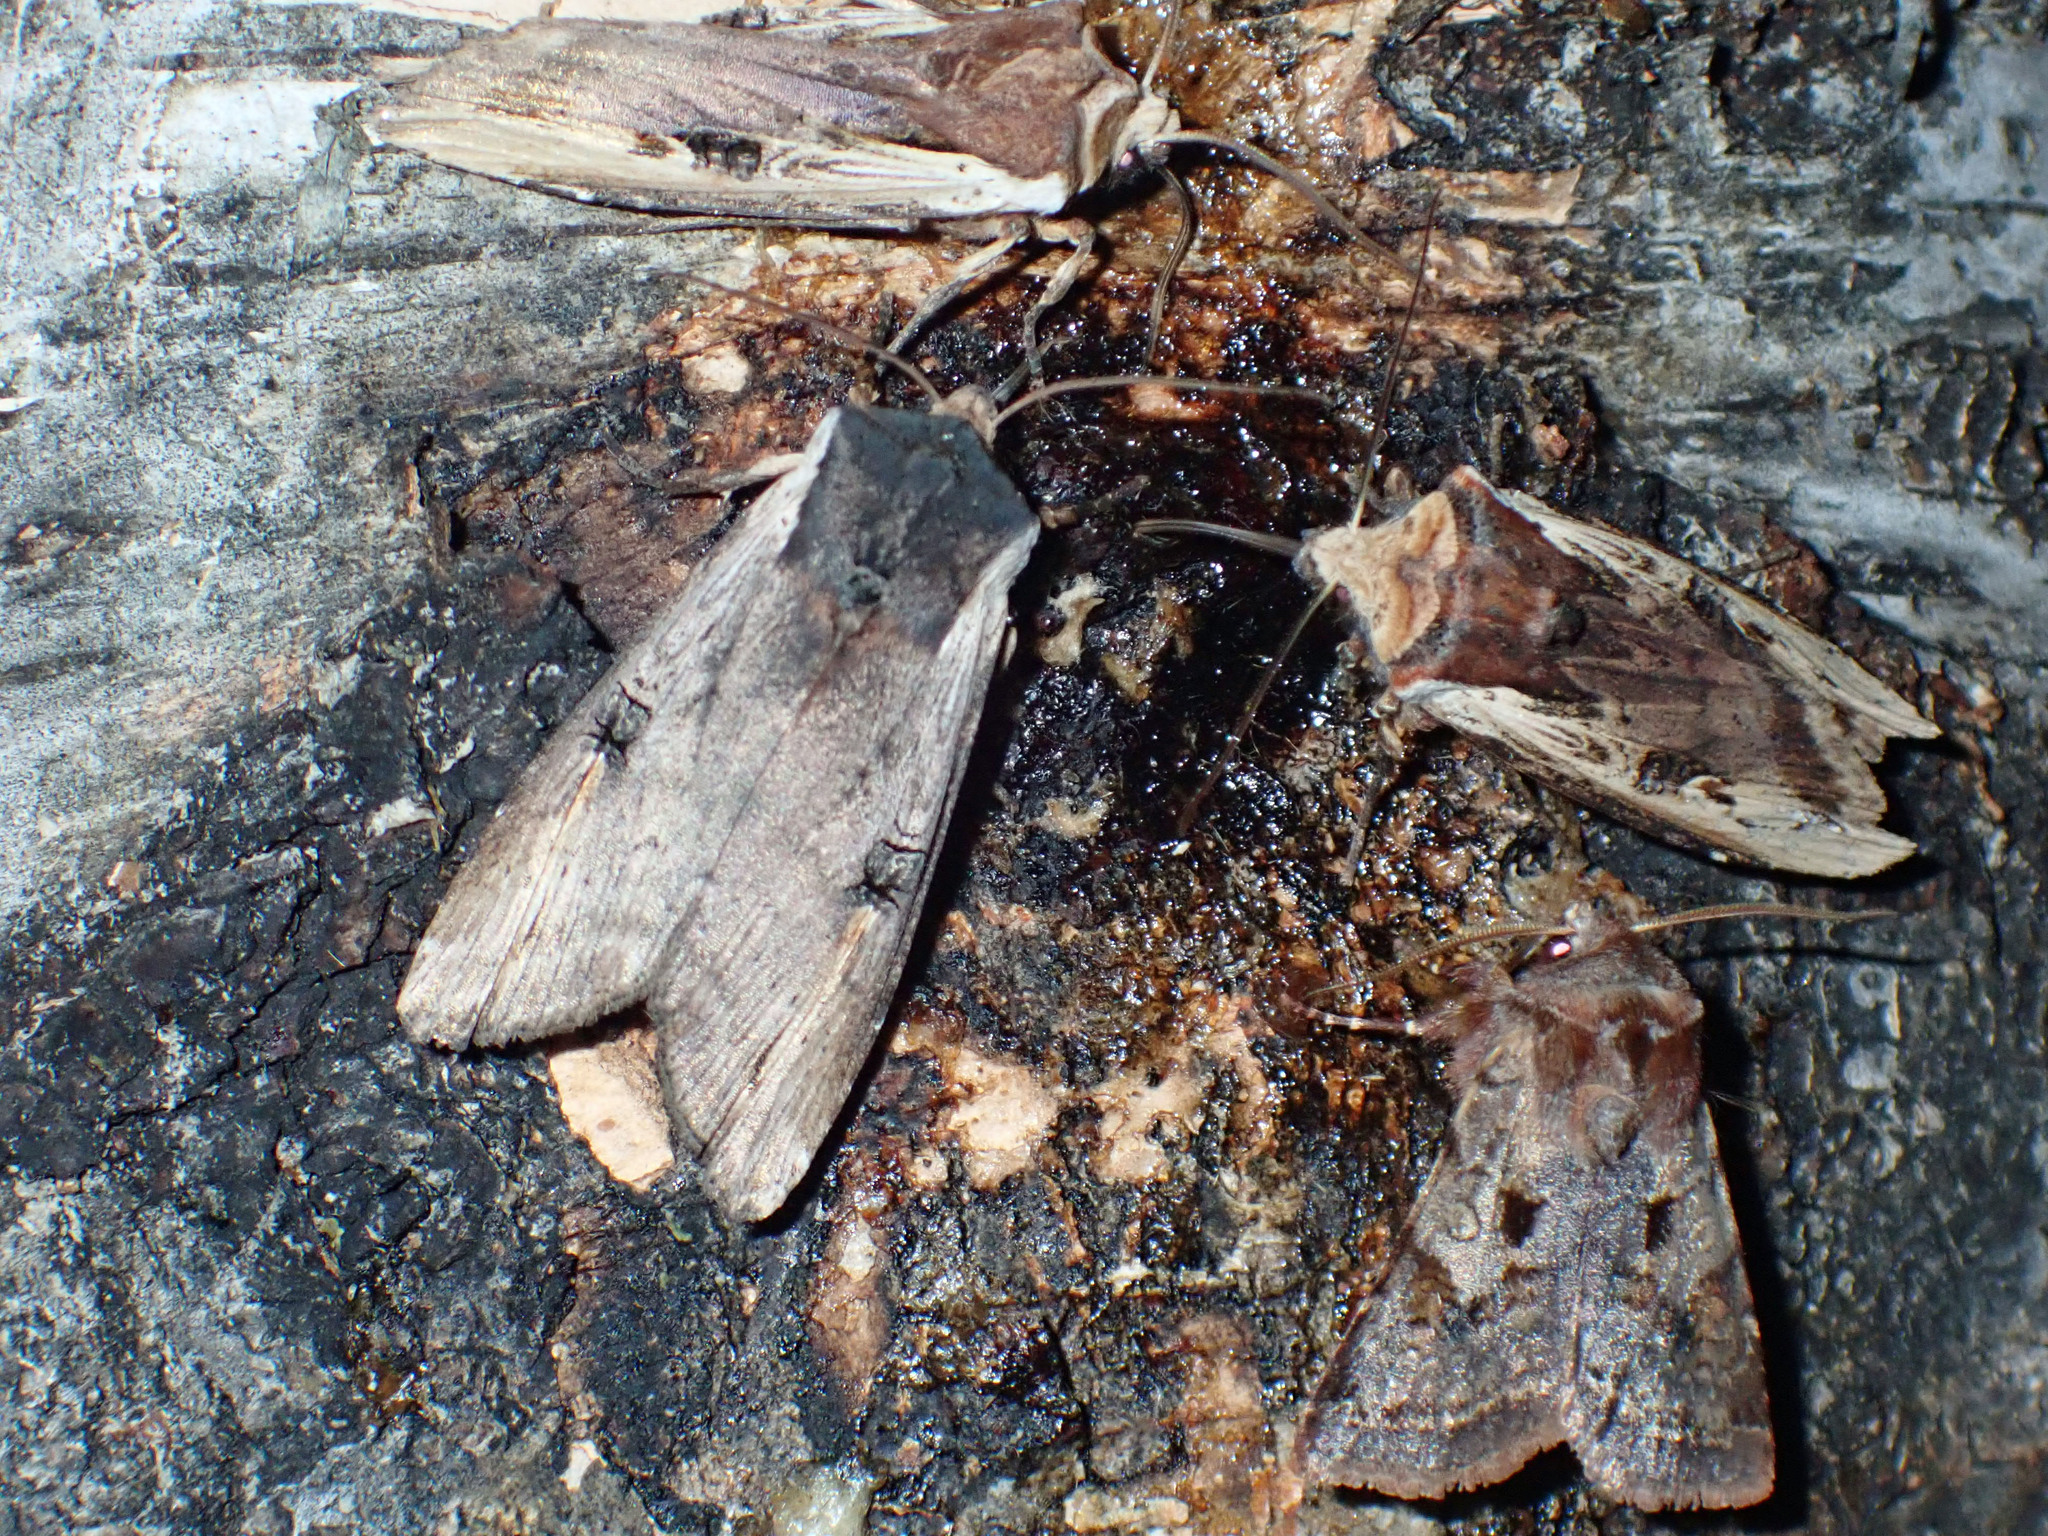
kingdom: Animalia
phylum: Arthropoda
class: Insecta
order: Lepidoptera
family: Noctuidae
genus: Xylena
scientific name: Xylena cineritia
